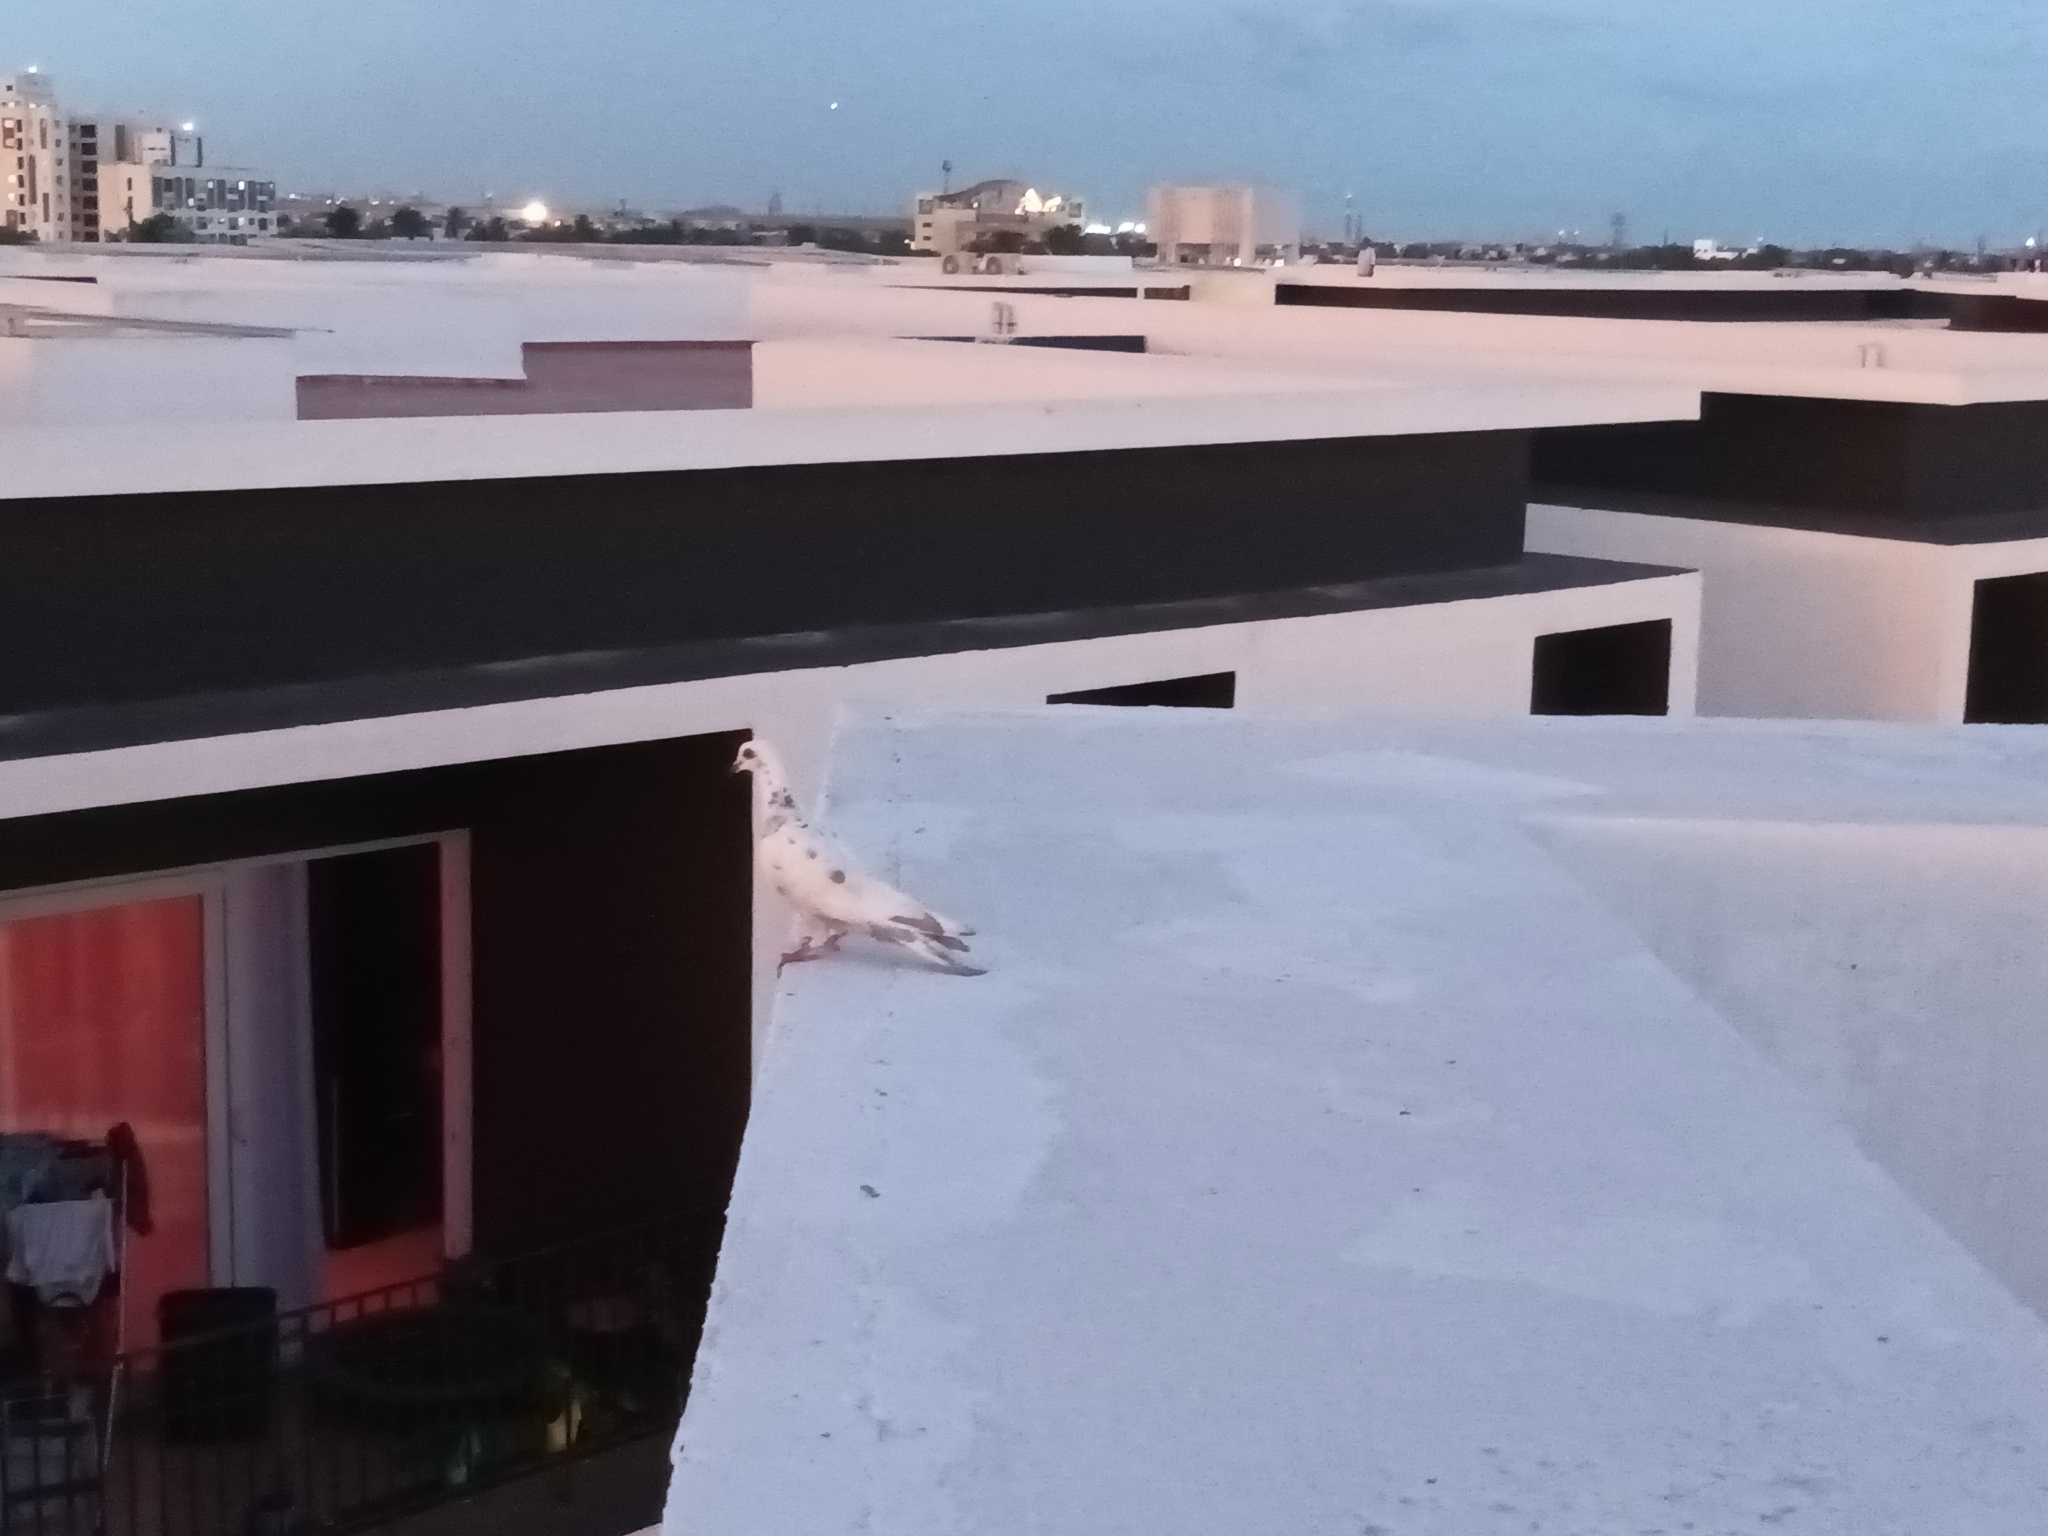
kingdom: Animalia
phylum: Chordata
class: Aves
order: Columbiformes
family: Columbidae
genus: Columba
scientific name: Columba livia
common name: Rock pigeon
